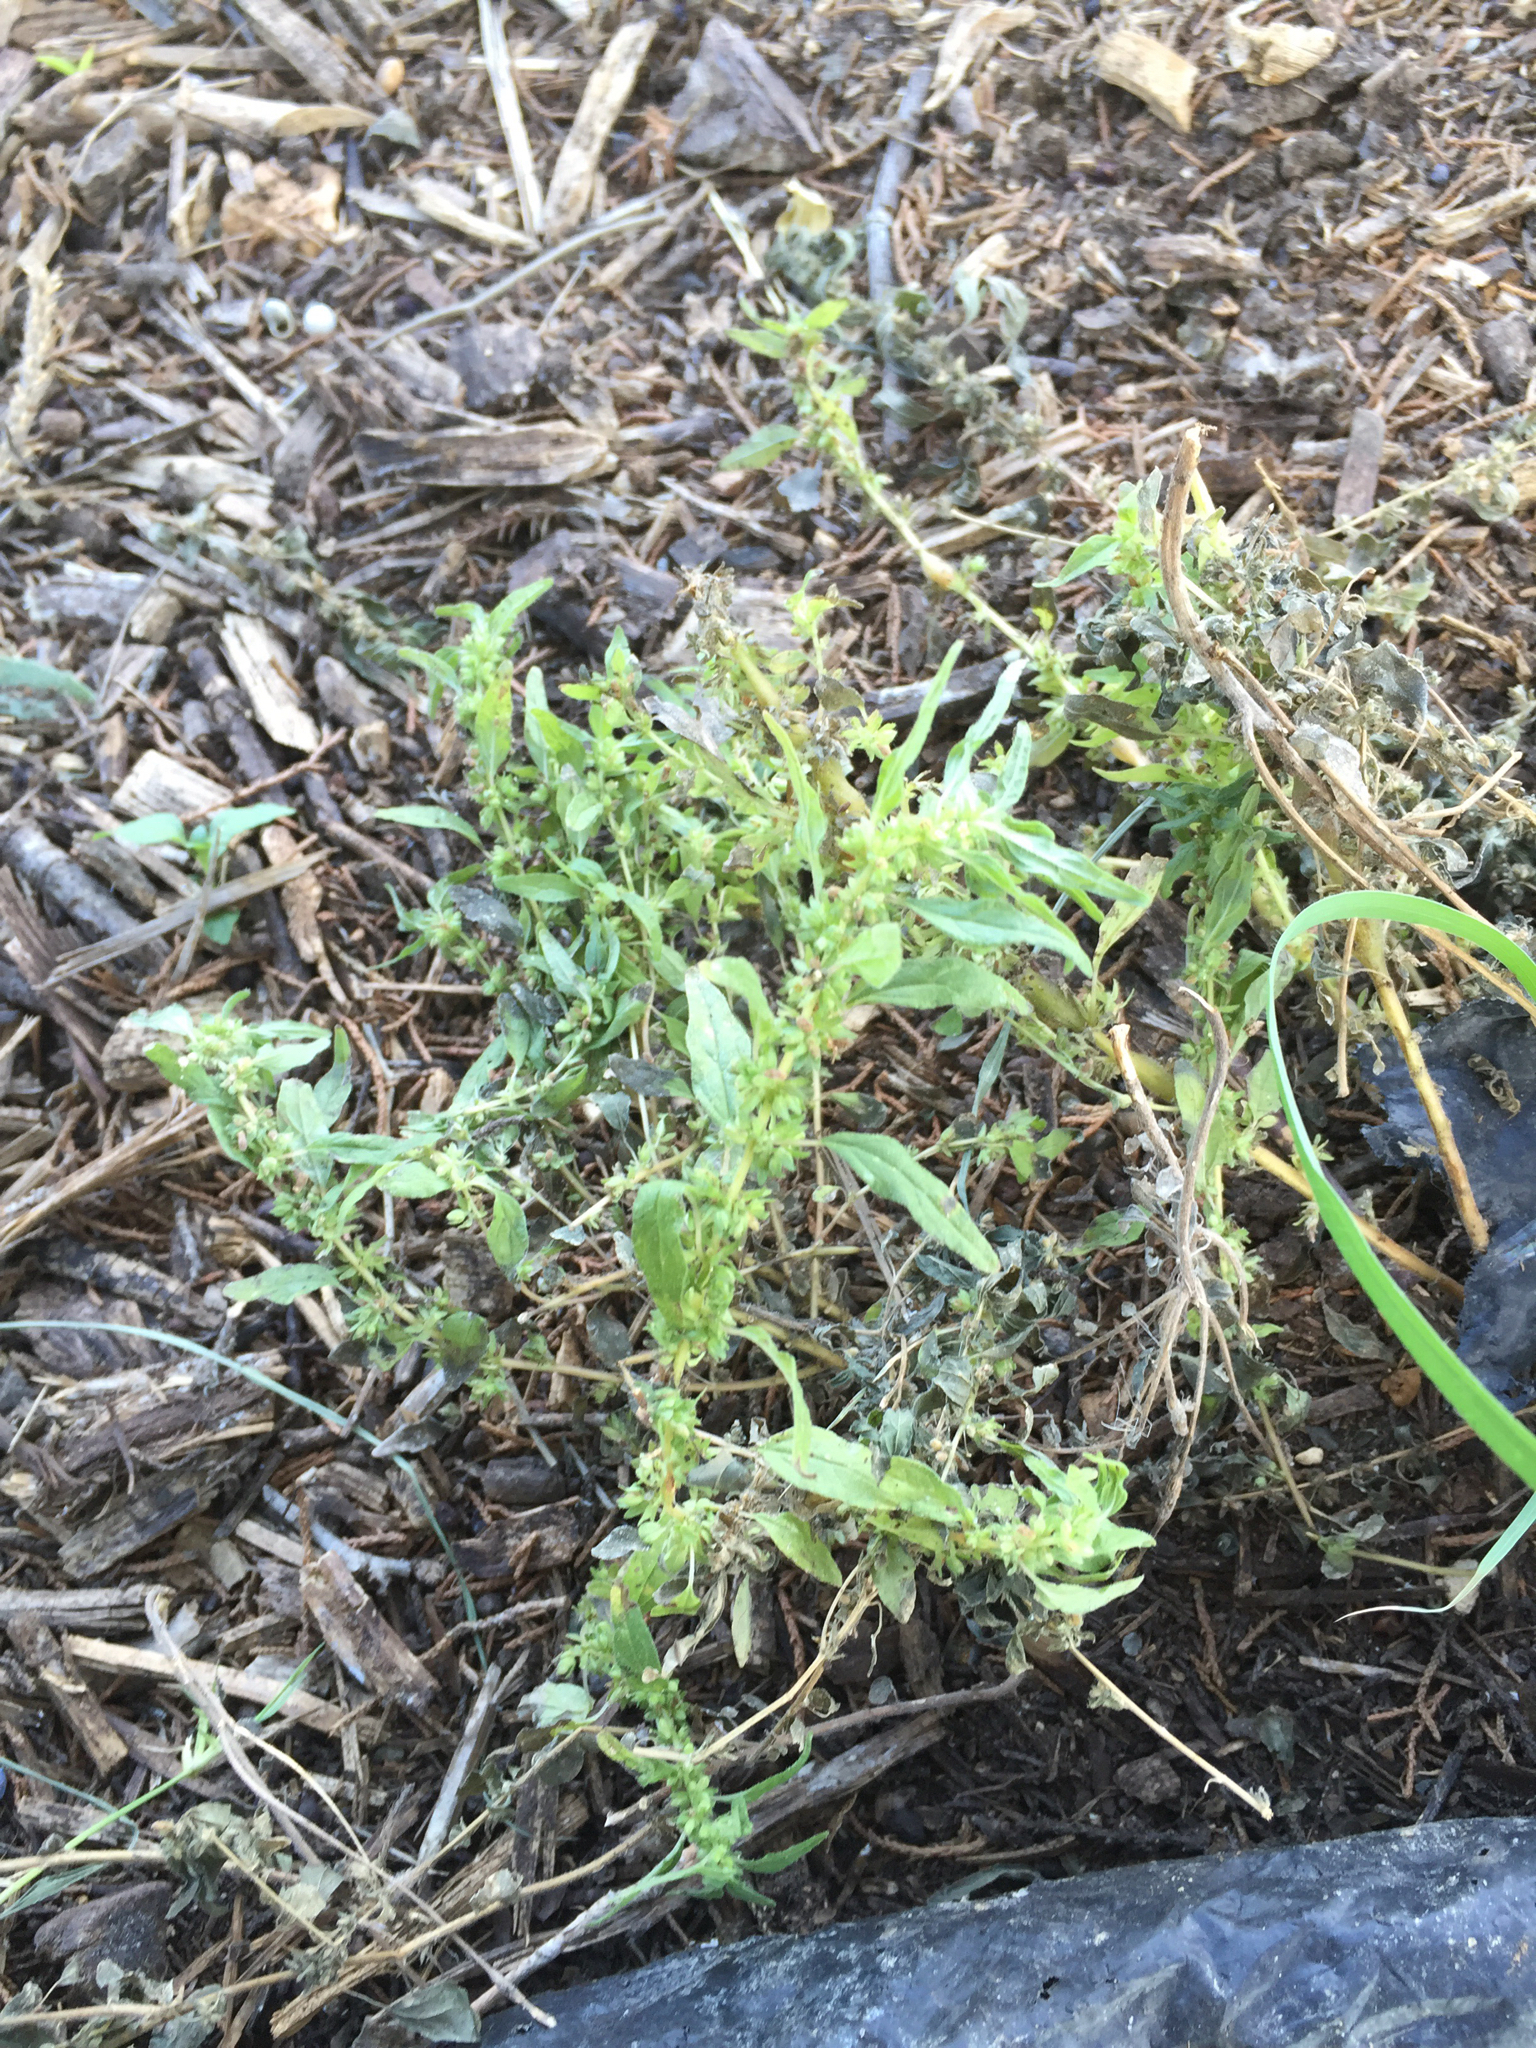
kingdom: Plantae
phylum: Tracheophyta
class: Magnoliopsida
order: Rosales
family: Urticaceae
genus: Parietaria
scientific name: Parietaria pensylvanica
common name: Pennsylvania pellitory
